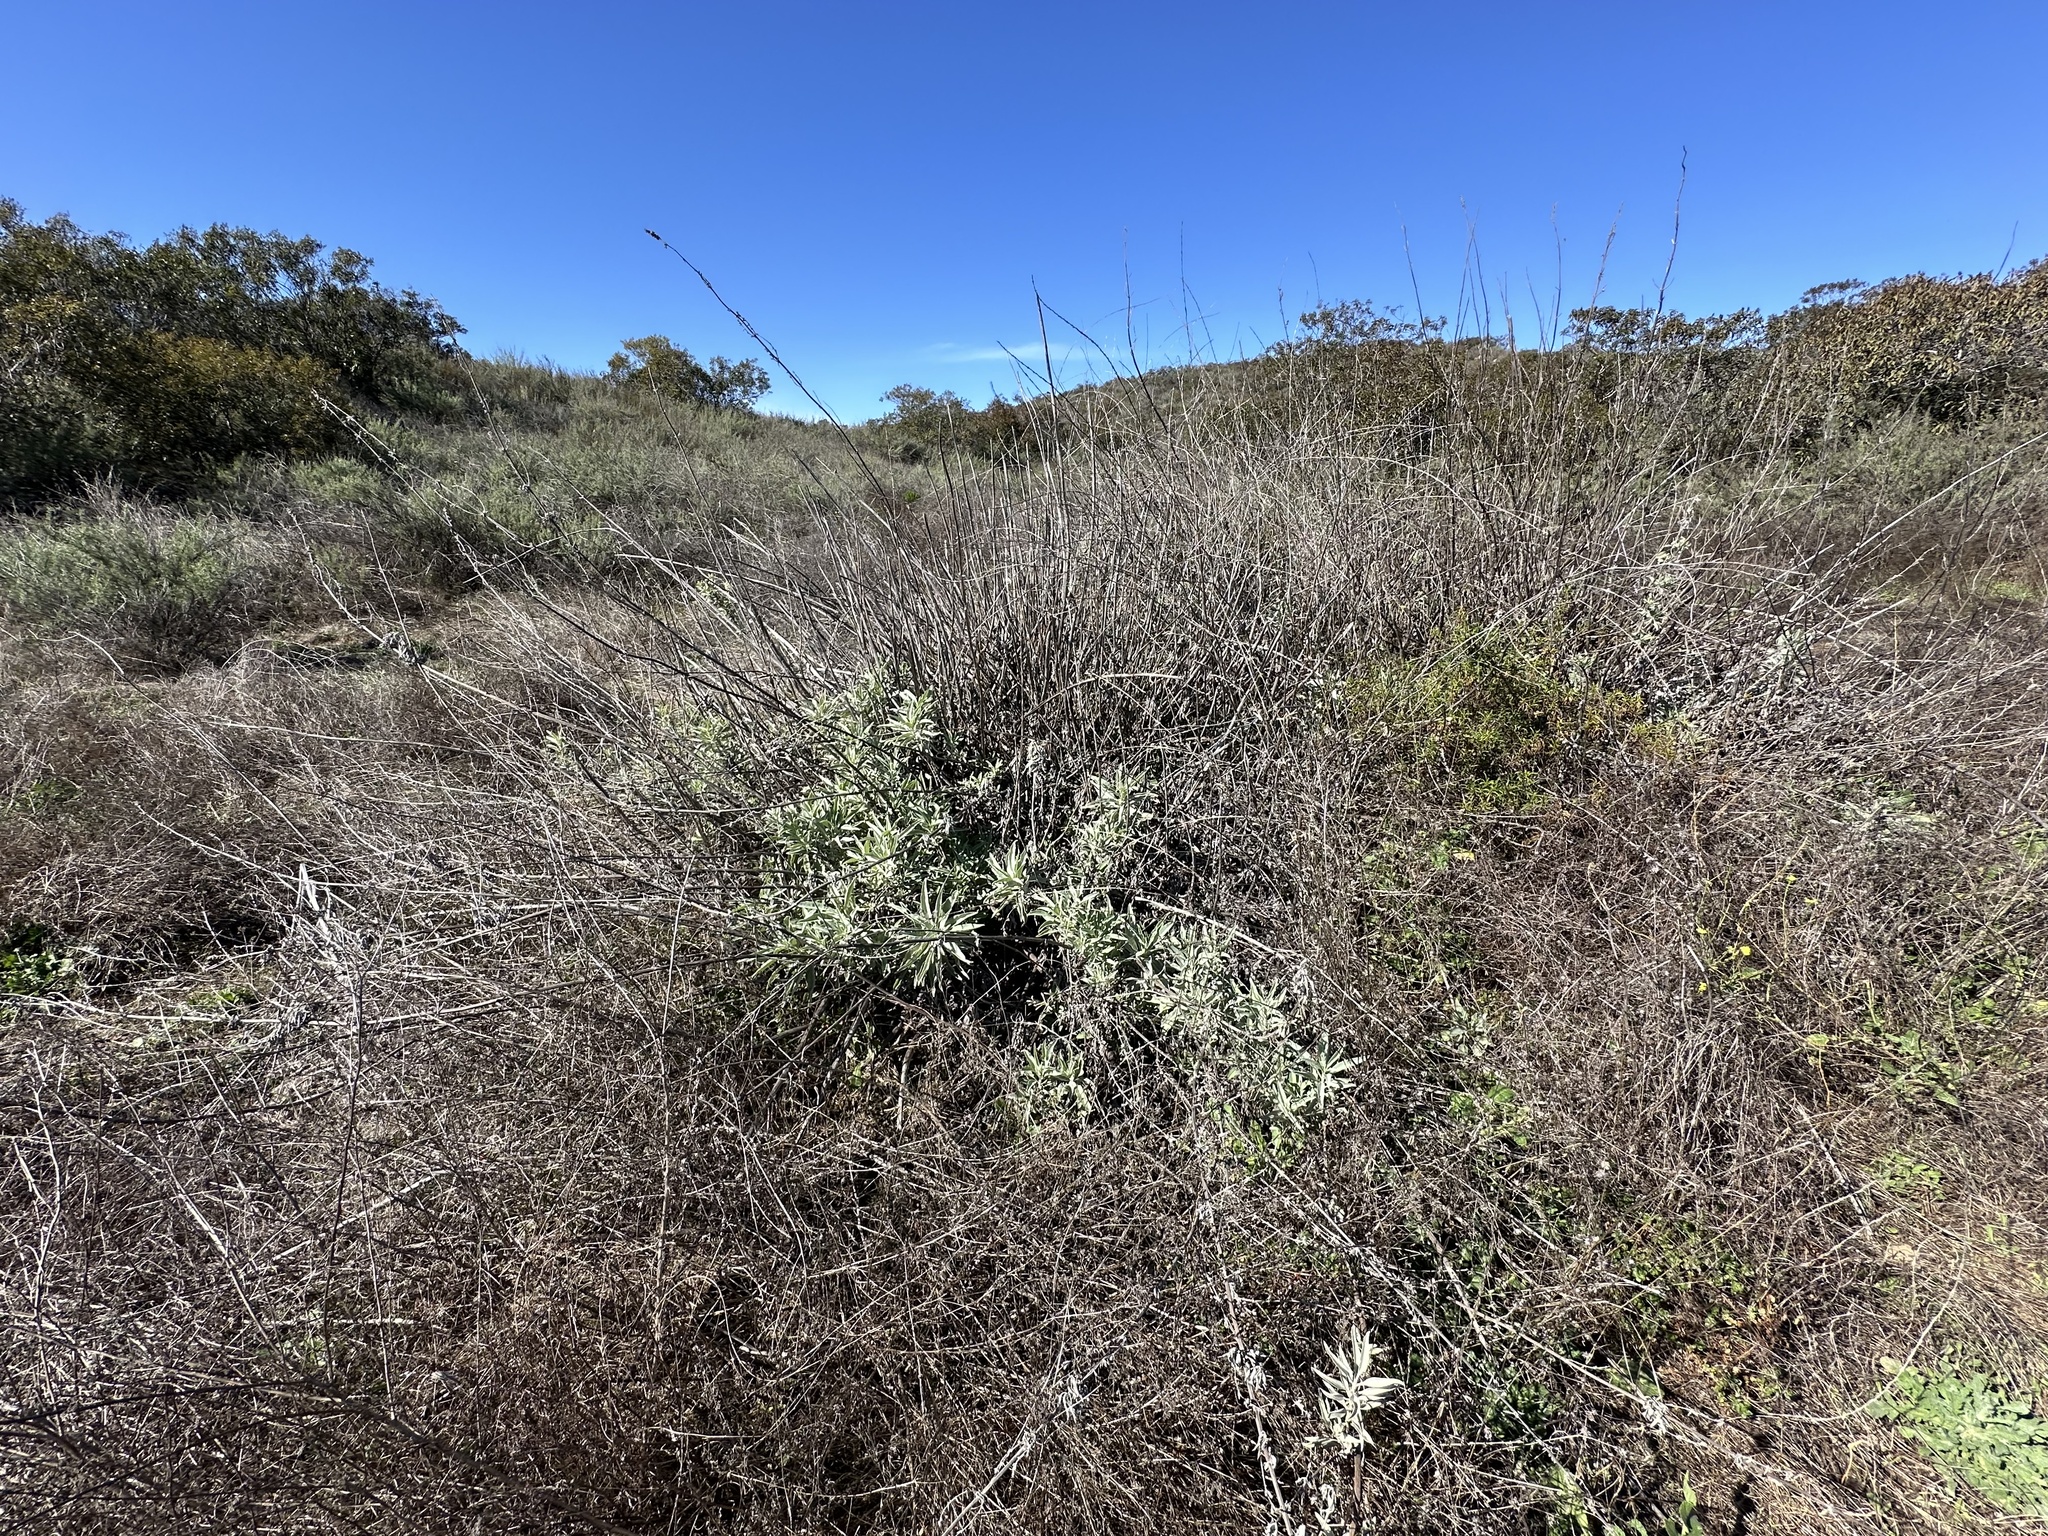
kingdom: Plantae
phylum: Tracheophyta
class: Magnoliopsida
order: Lamiales
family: Lamiaceae
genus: Salvia
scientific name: Salvia apiana
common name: White sage
